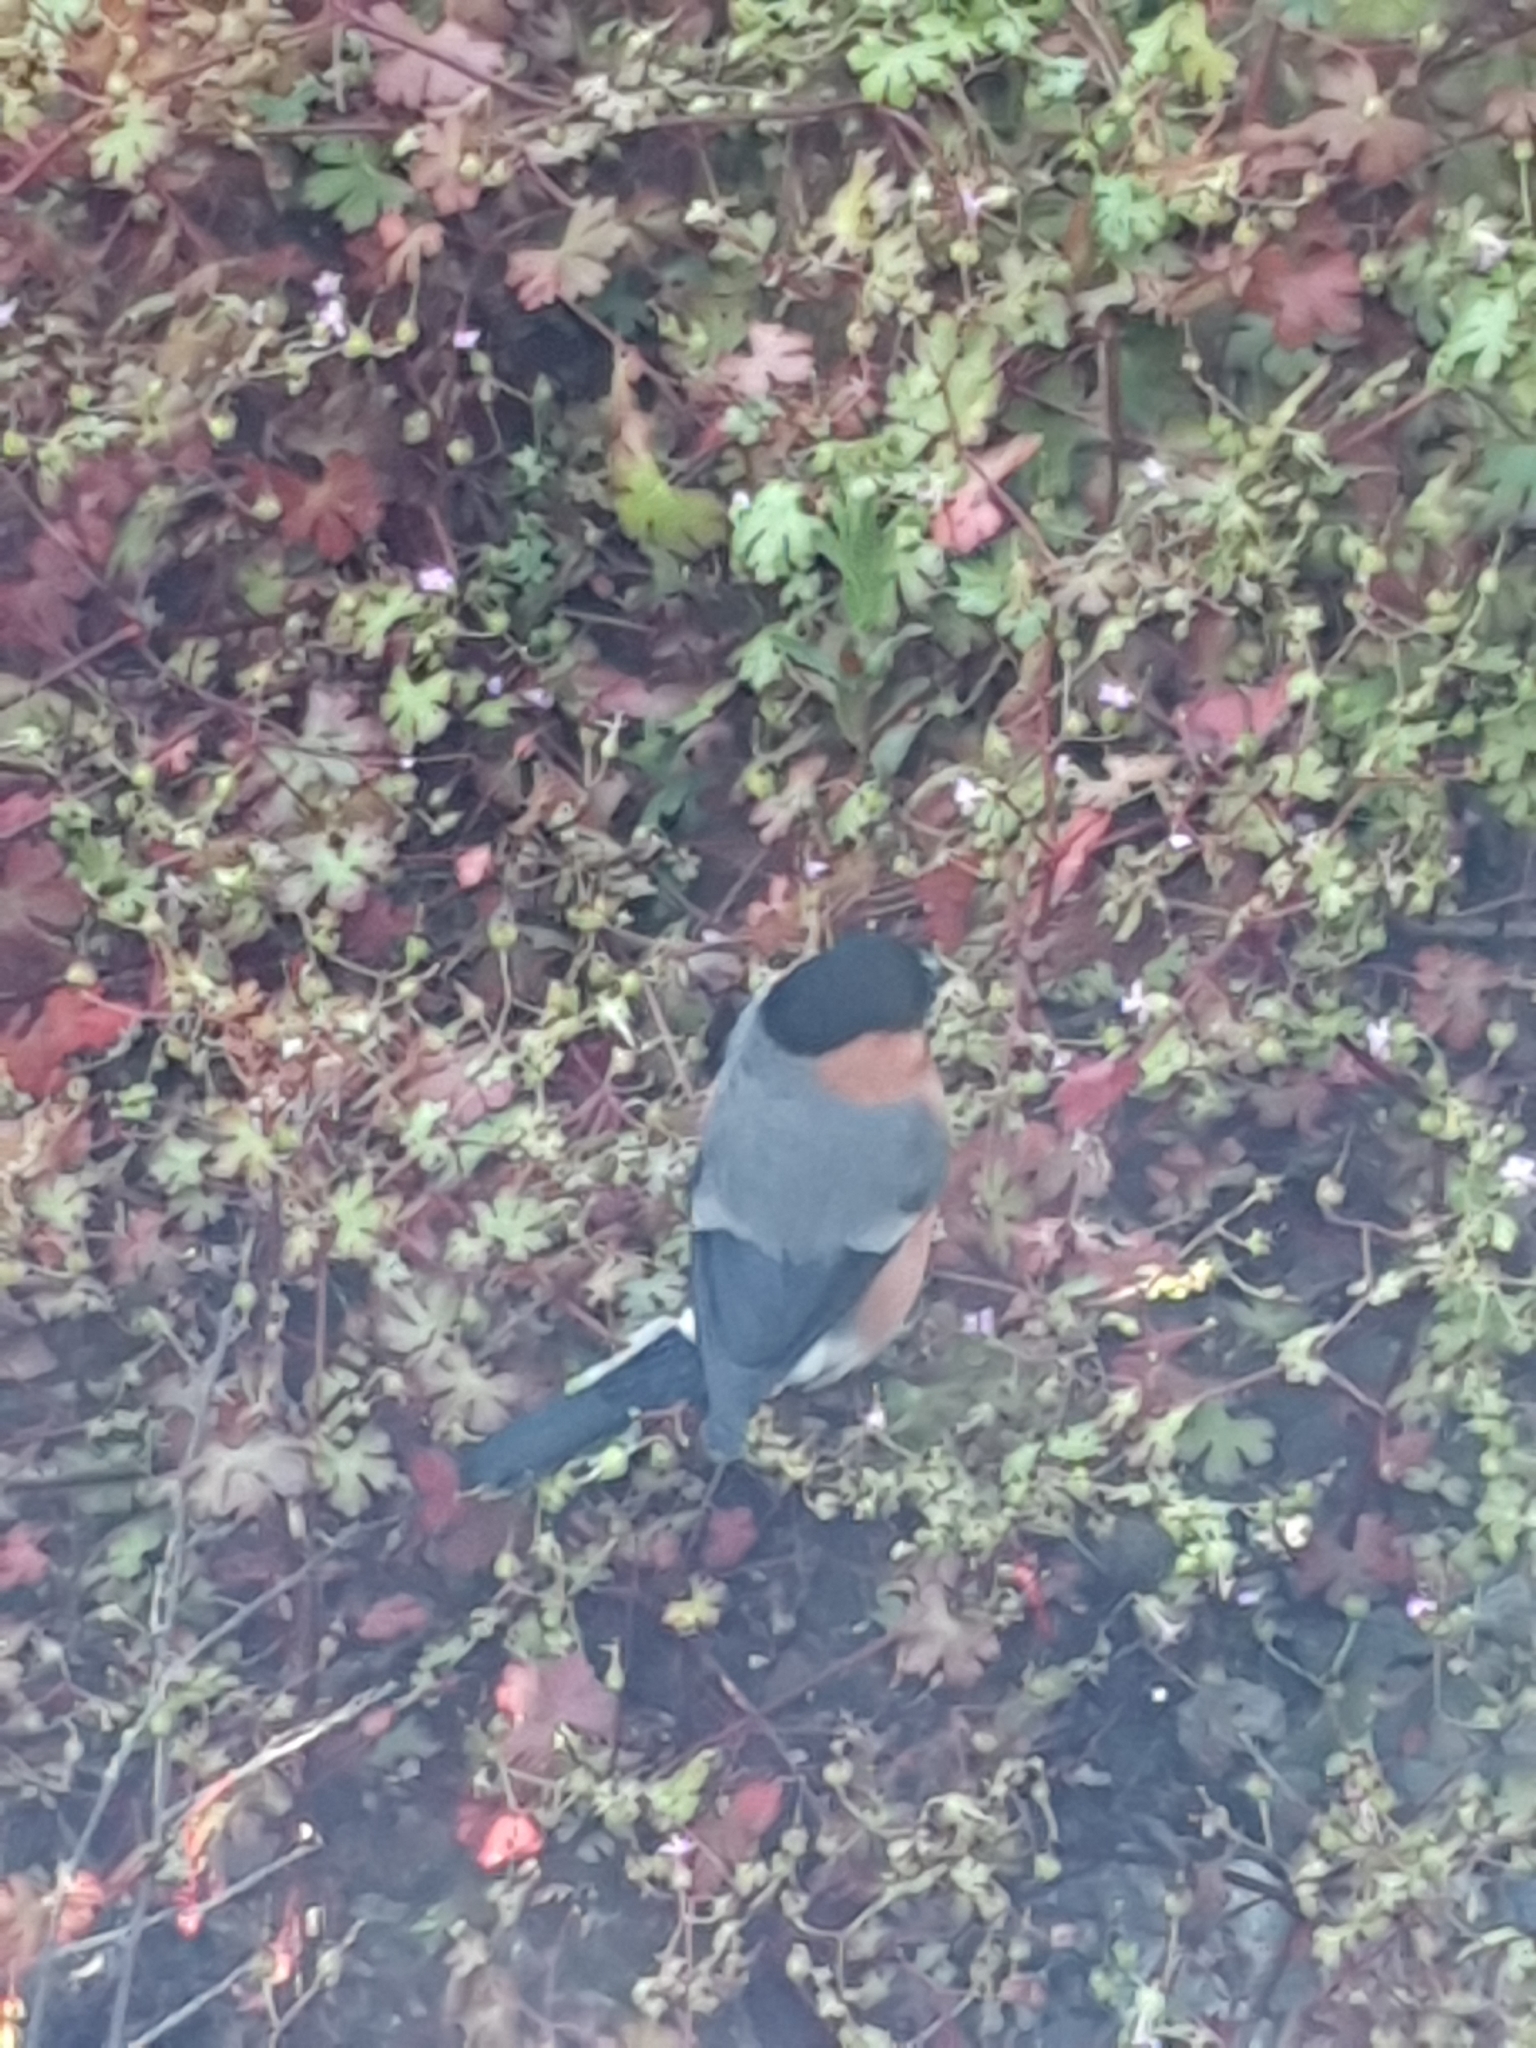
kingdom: Animalia
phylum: Chordata
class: Aves
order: Passeriformes
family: Fringillidae
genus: Pyrrhula
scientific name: Pyrrhula pyrrhula
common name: Eurasian bullfinch
